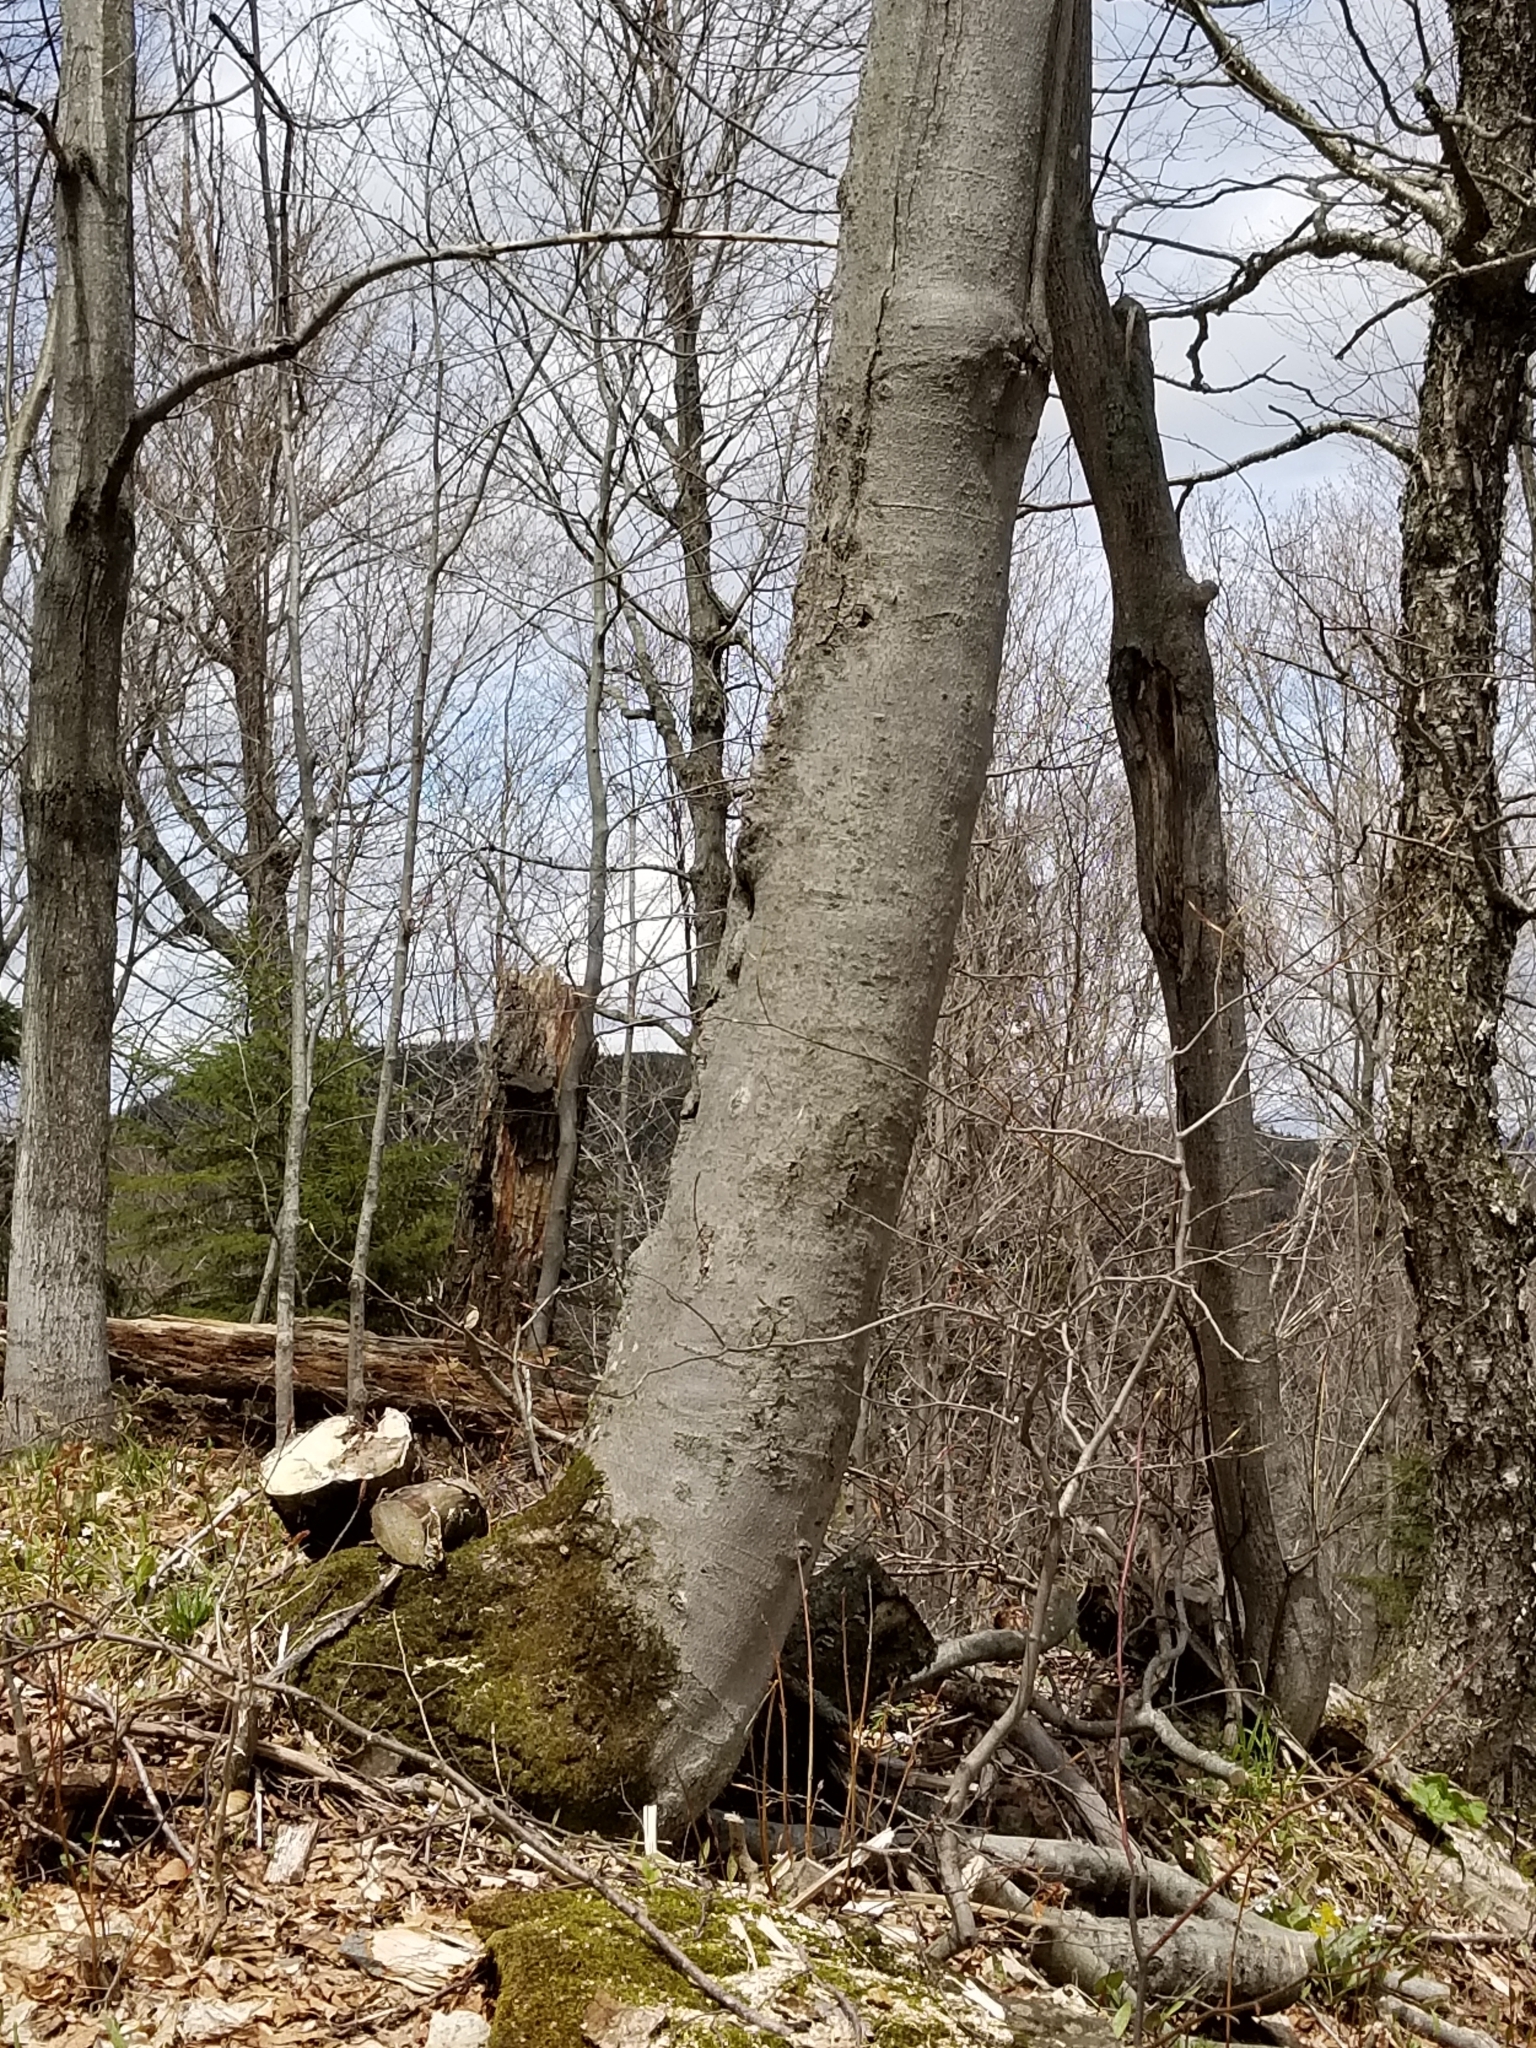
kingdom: Plantae
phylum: Tracheophyta
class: Magnoliopsida
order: Fagales
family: Fagaceae
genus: Fagus
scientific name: Fagus grandifolia
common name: American beech
